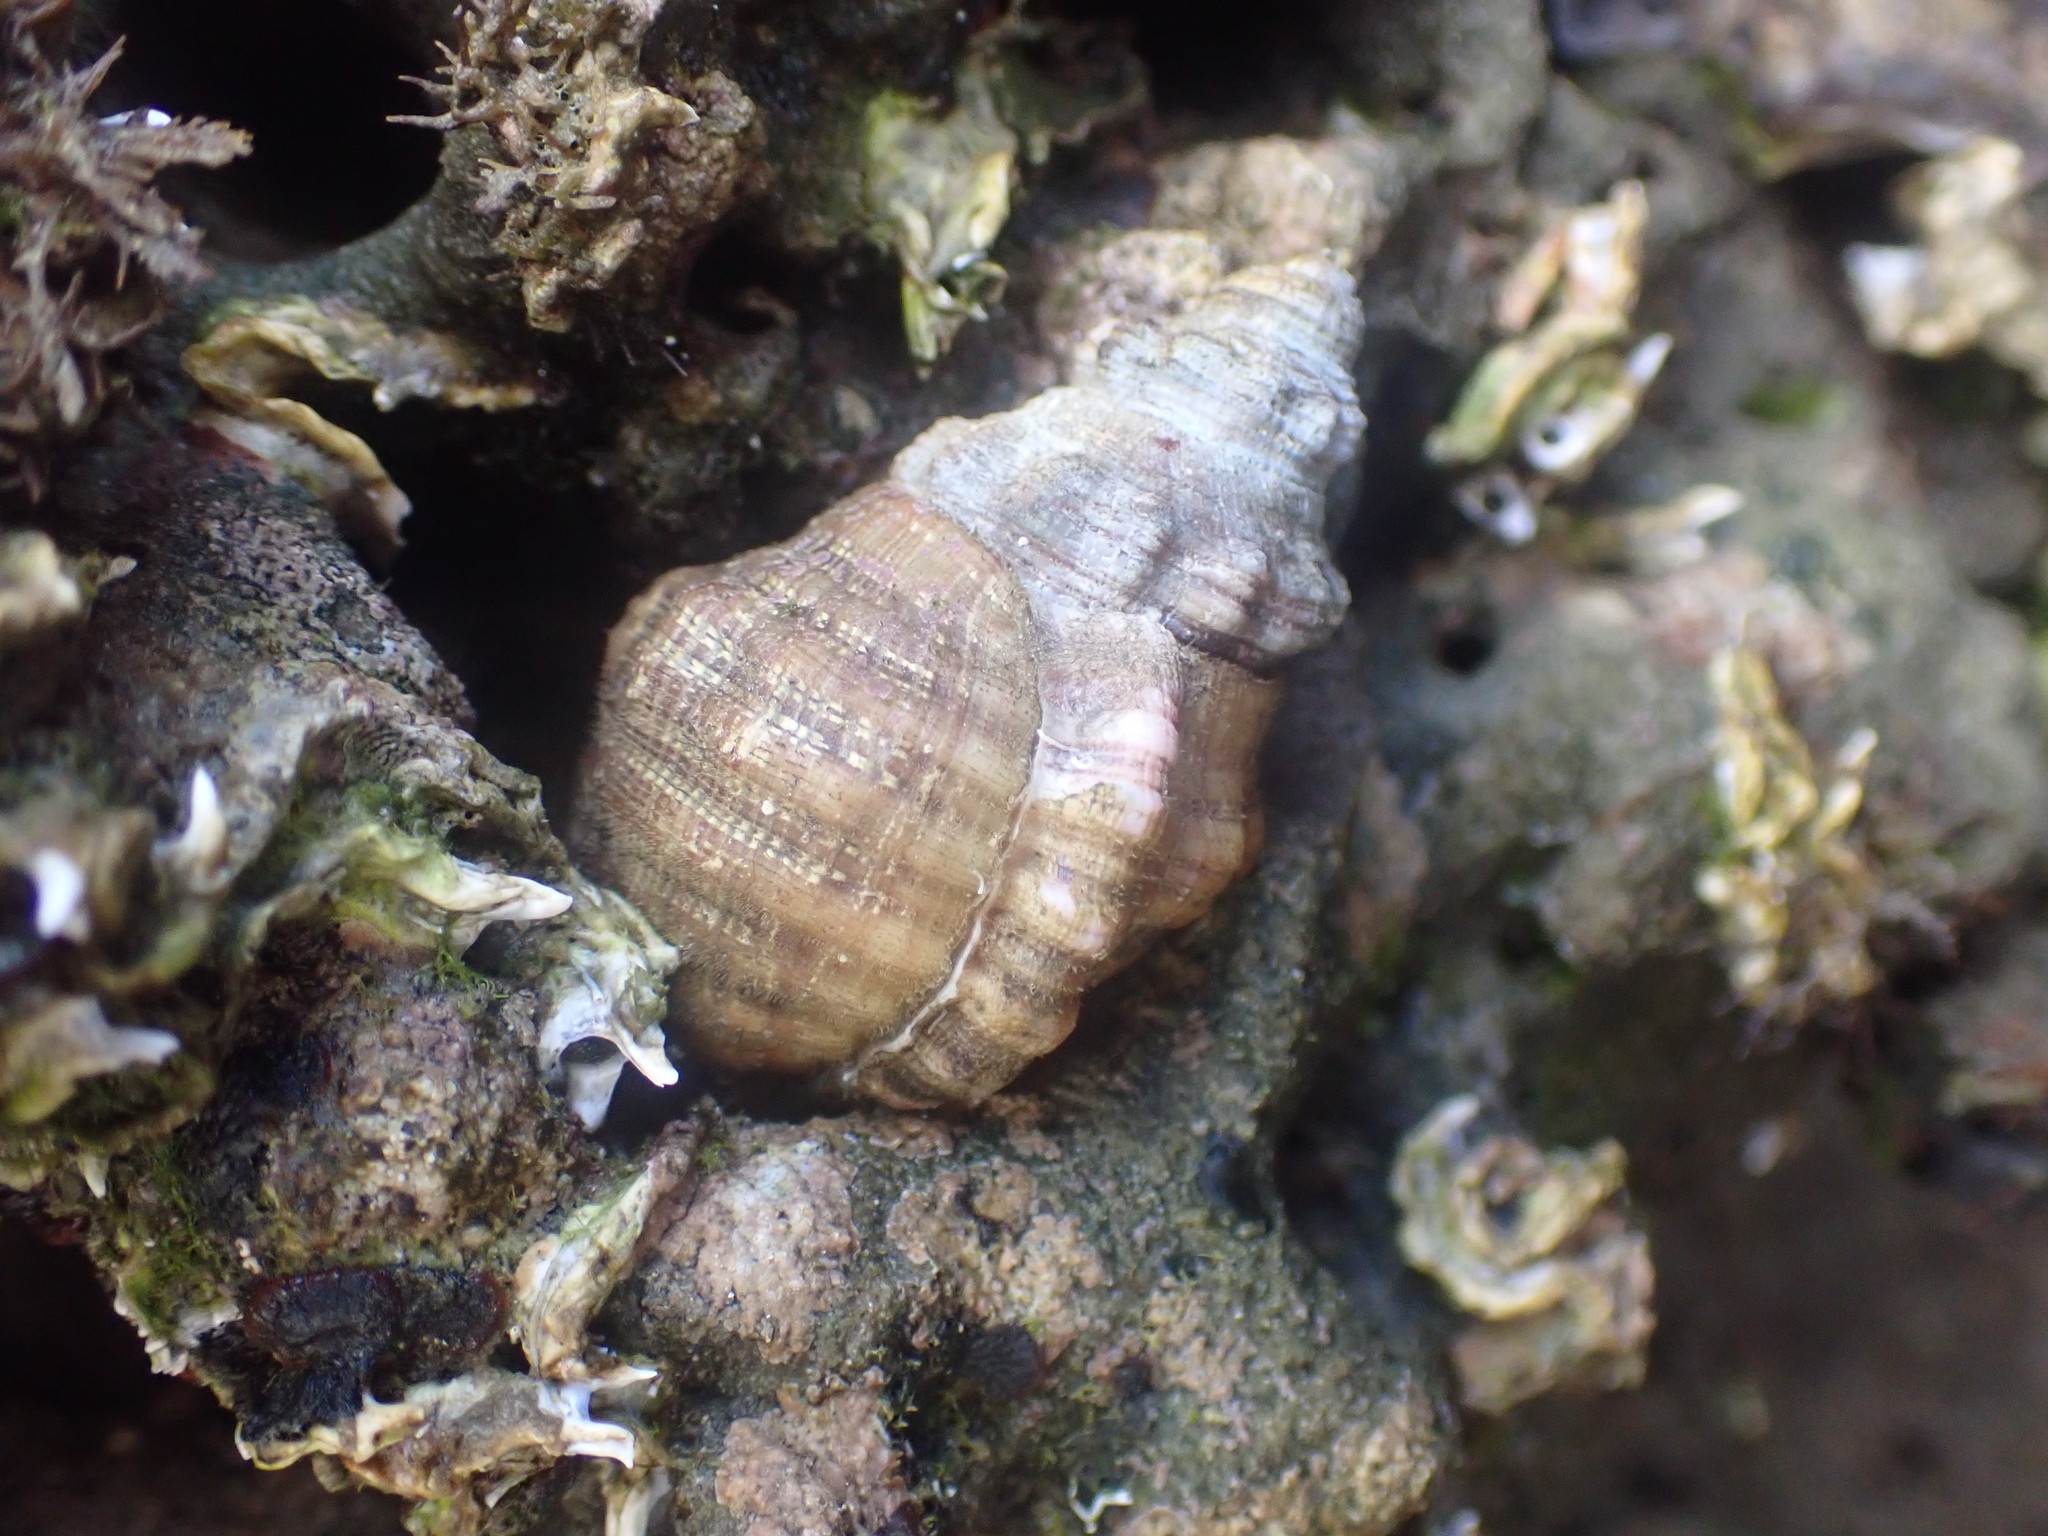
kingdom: Animalia
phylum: Mollusca
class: Gastropoda
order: Littorinimorpha
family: Cymatiidae
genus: Cabestana
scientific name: Cabestana spengleri
